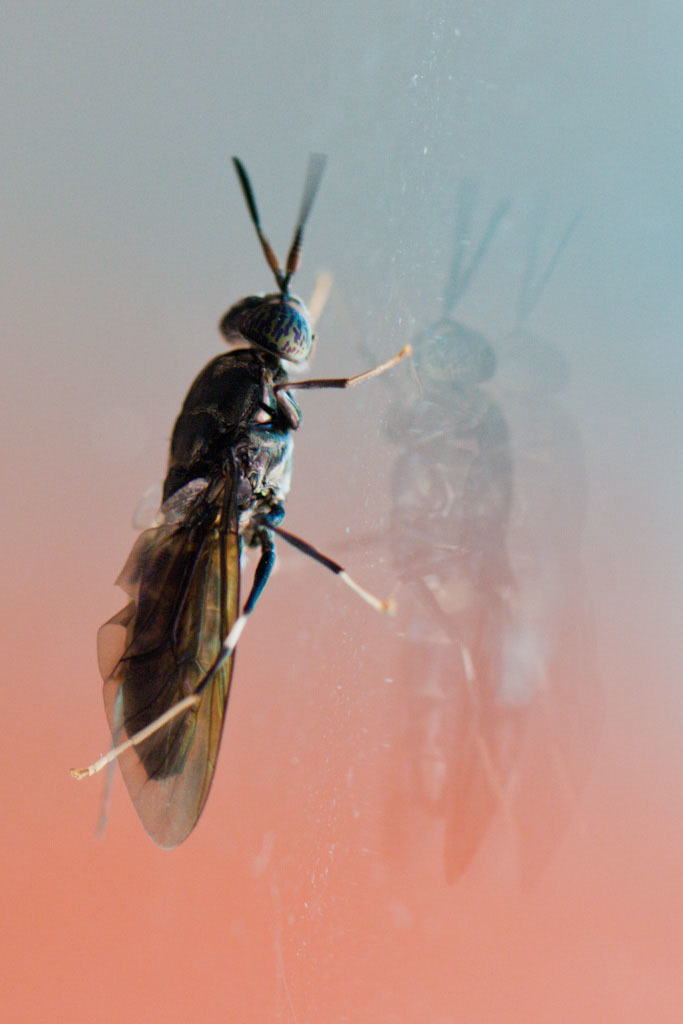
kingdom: Animalia
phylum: Arthropoda
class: Insecta
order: Diptera
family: Stratiomyidae
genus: Hermetia
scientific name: Hermetia illucens
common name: Black soldier fly
